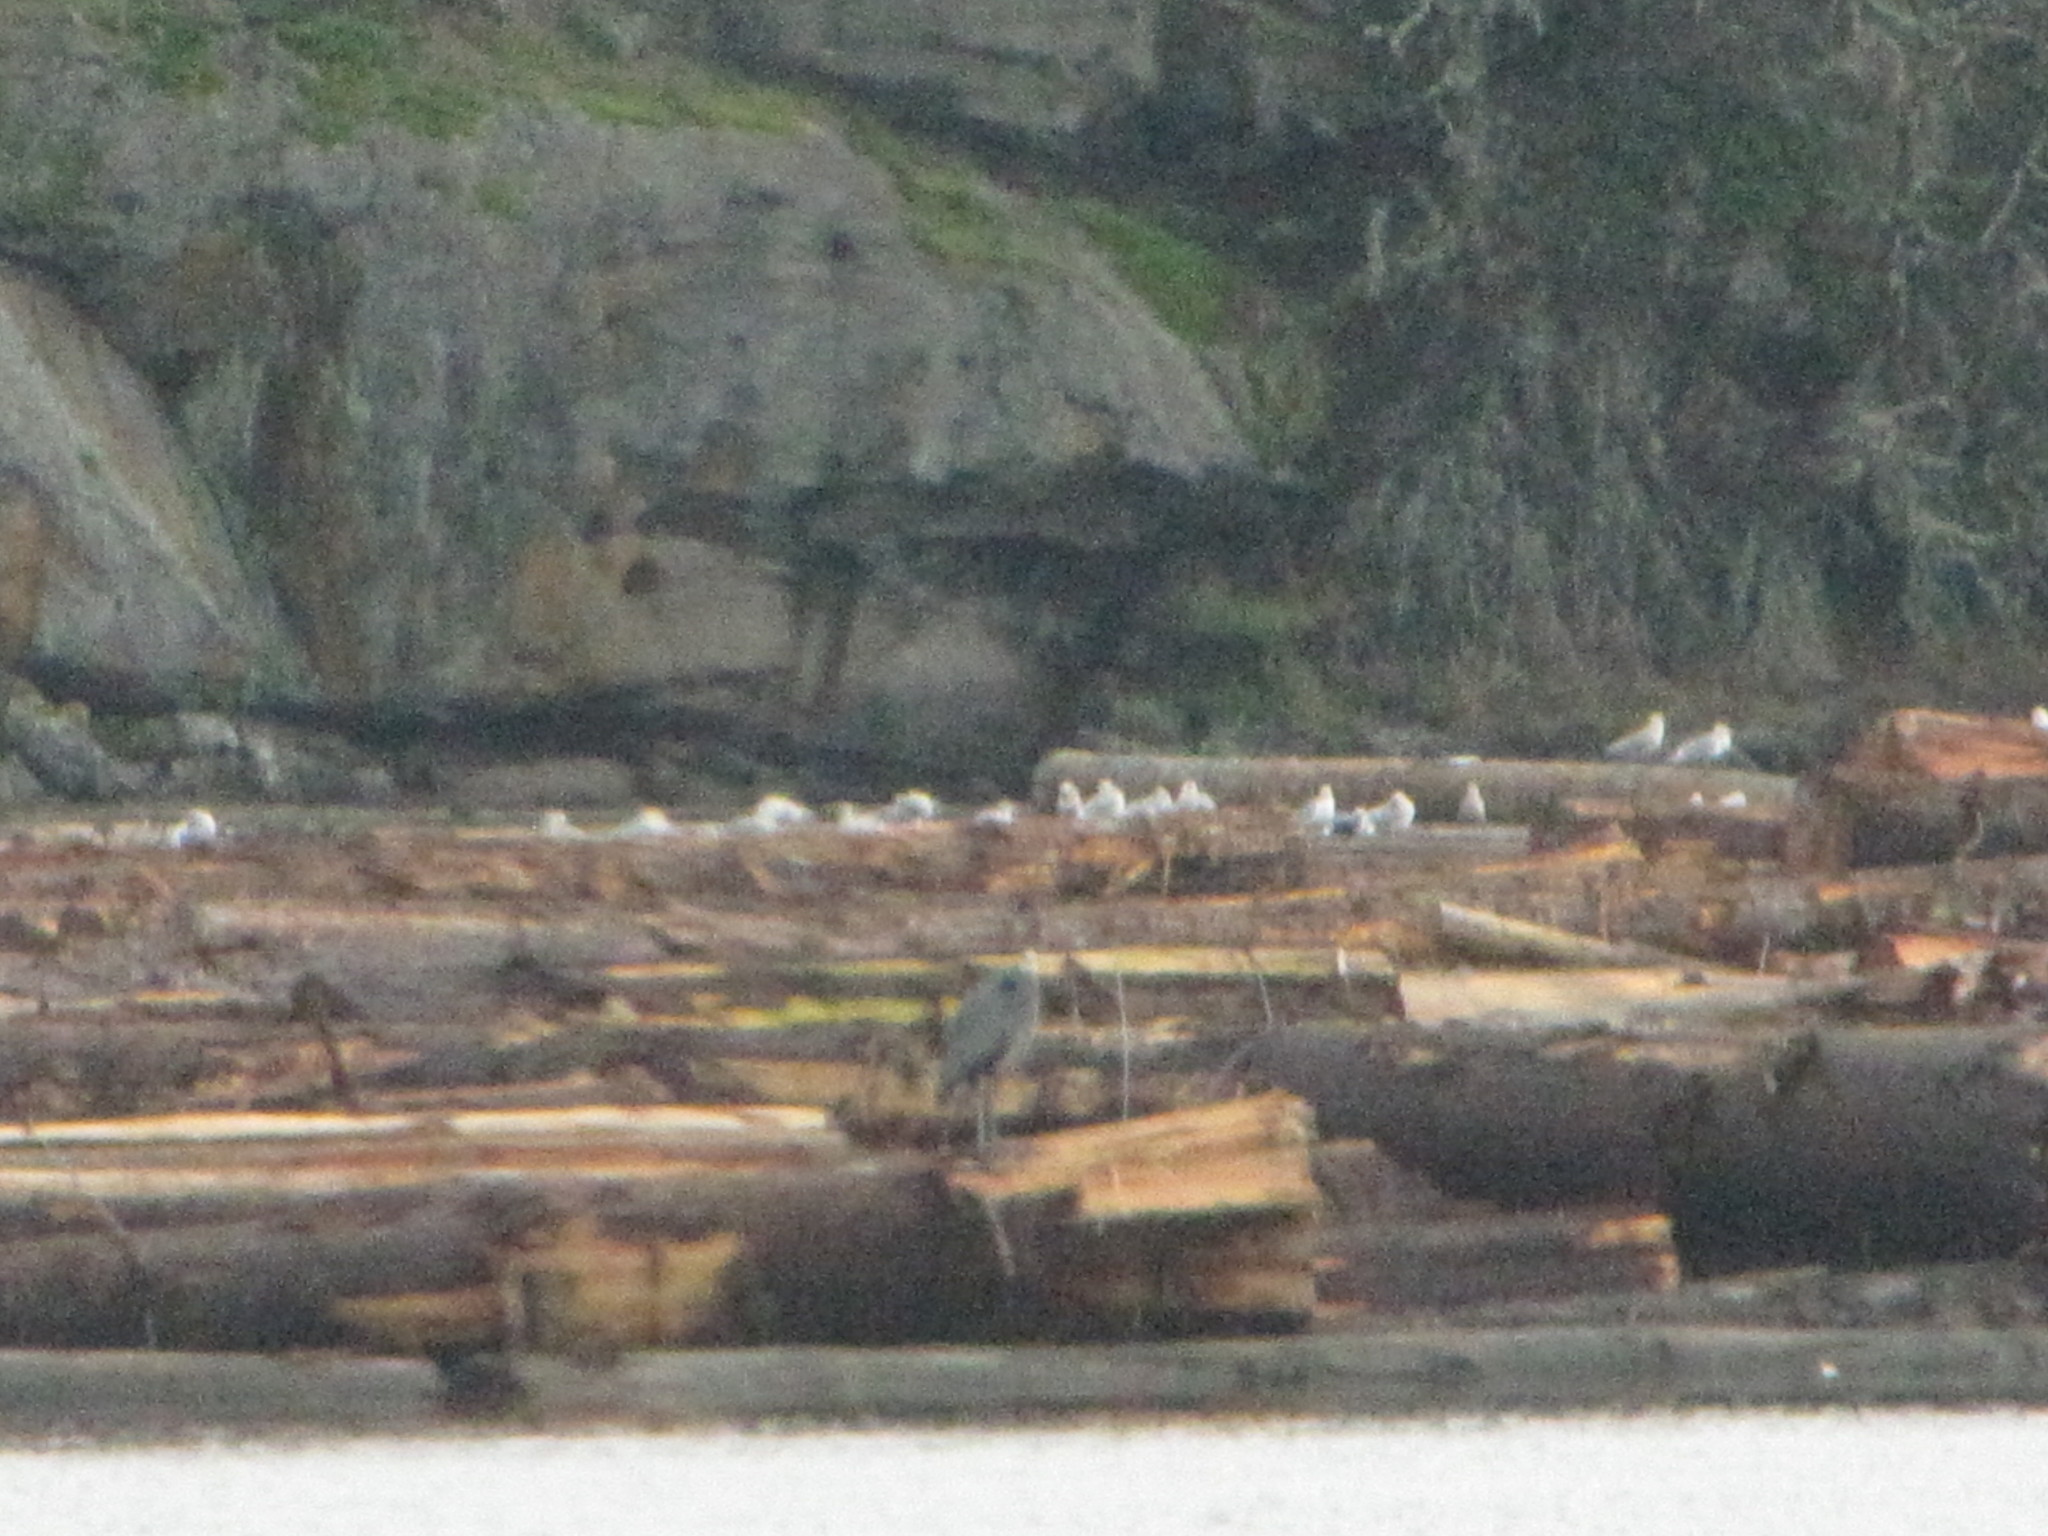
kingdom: Animalia
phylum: Chordata
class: Aves
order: Pelecaniformes
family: Ardeidae
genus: Ardea
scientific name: Ardea herodias
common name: Great blue heron
